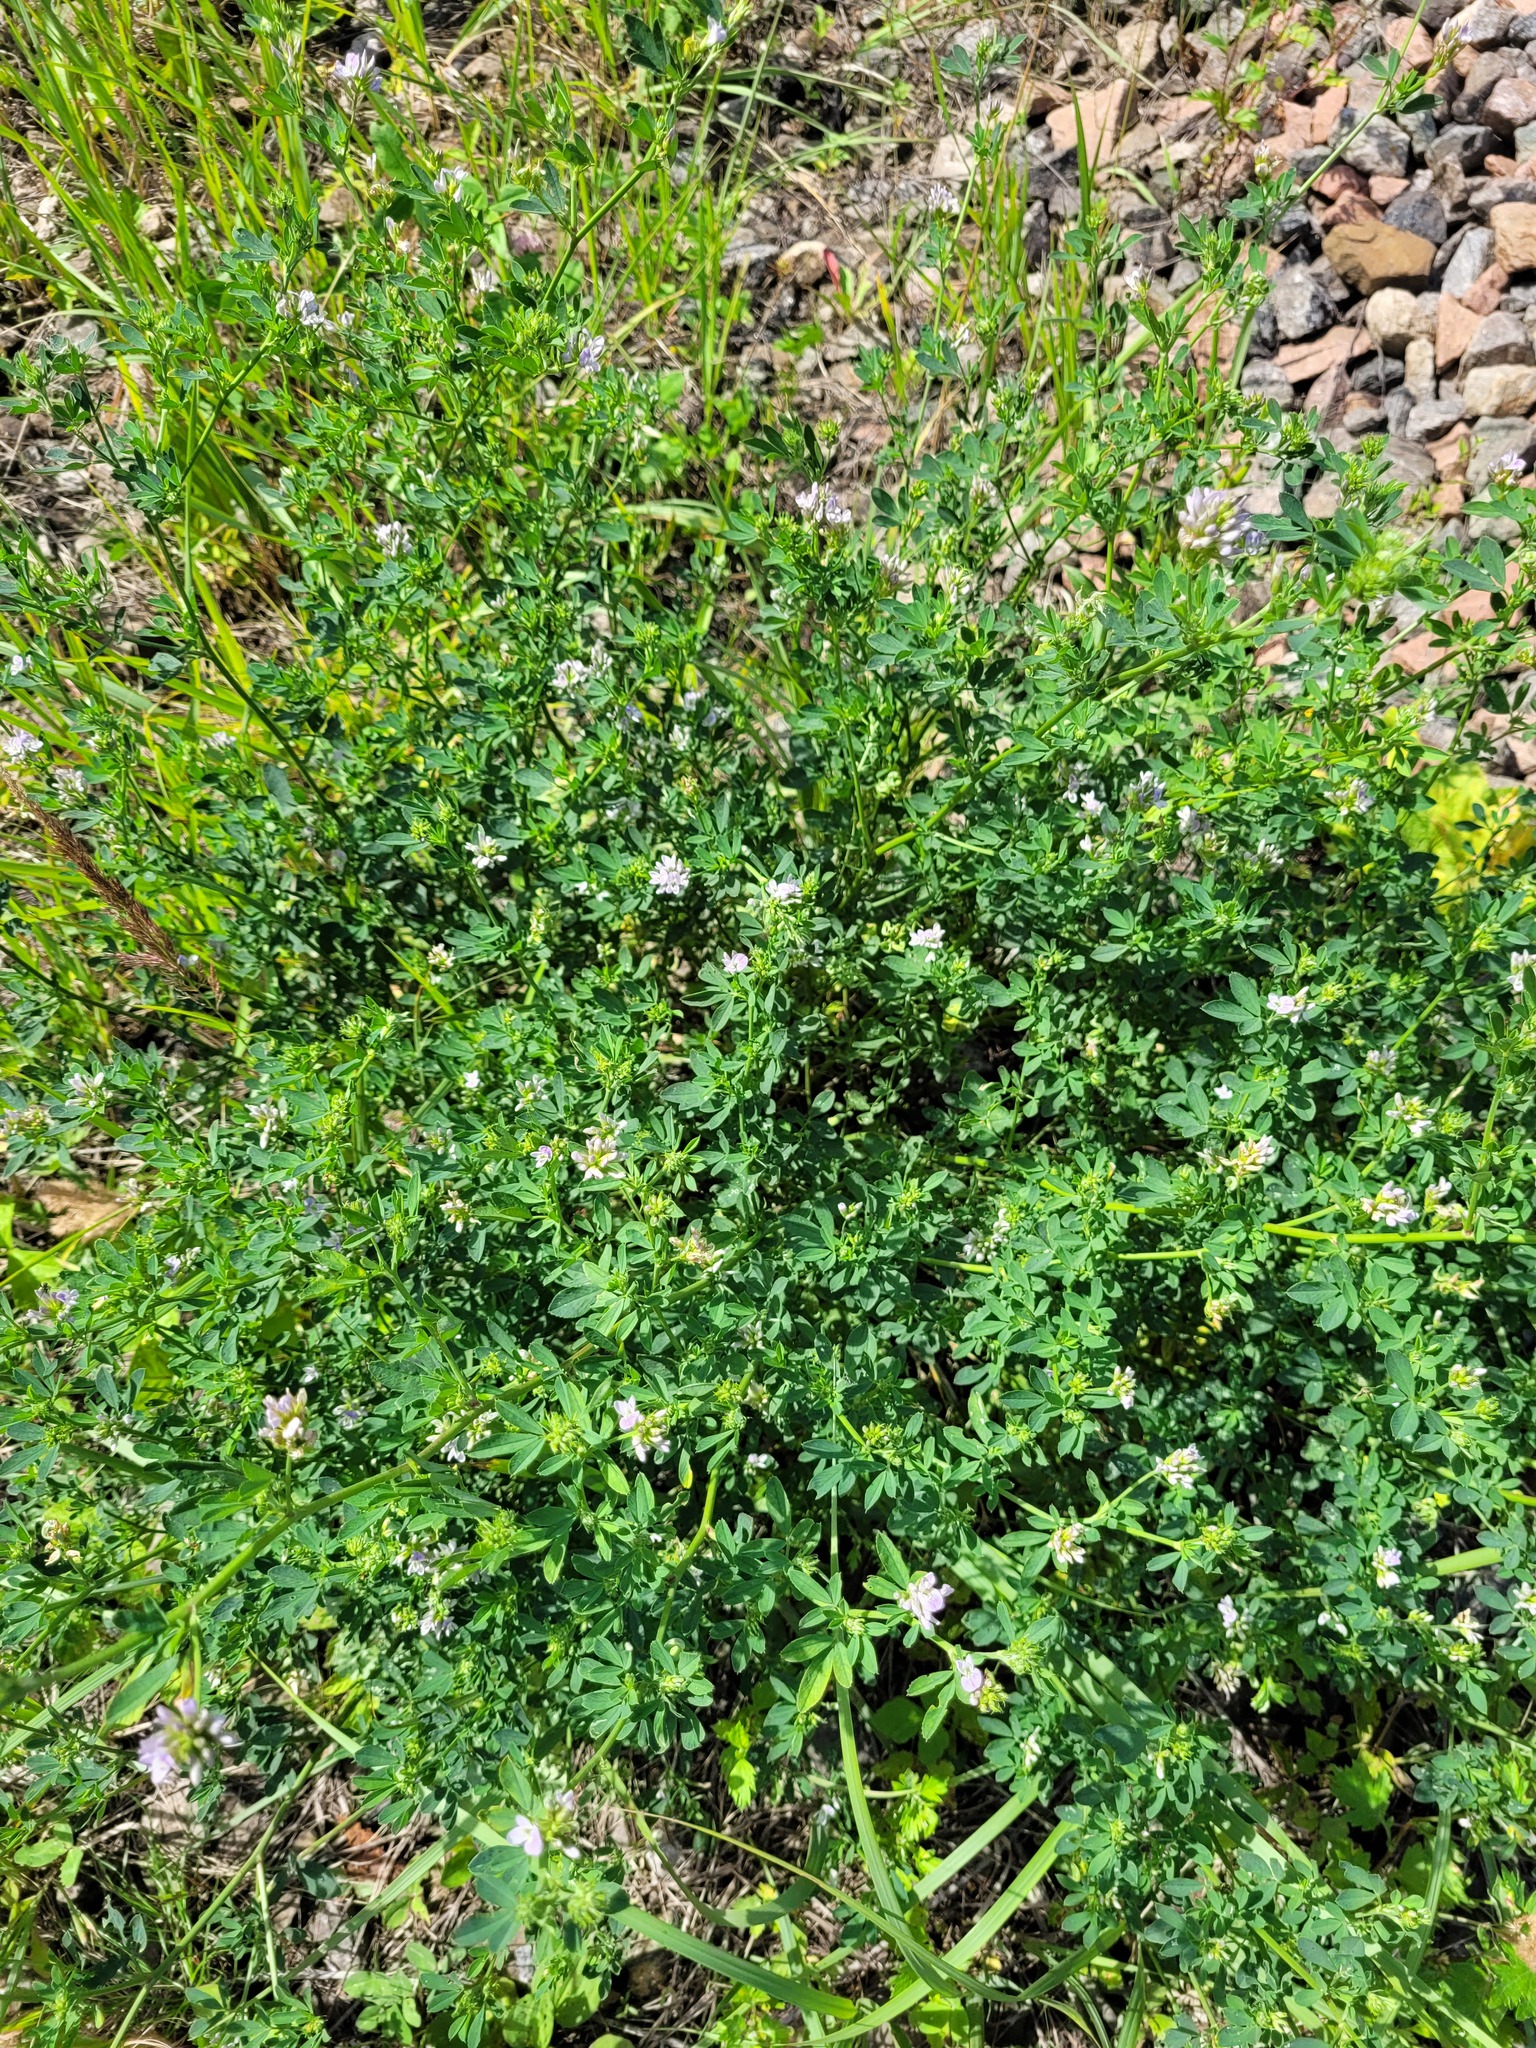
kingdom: Plantae
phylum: Tracheophyta
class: Magnoliopsida
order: Fabales
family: Fabaceae
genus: Medicago
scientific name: Medicago varia
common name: Sand lucerne
